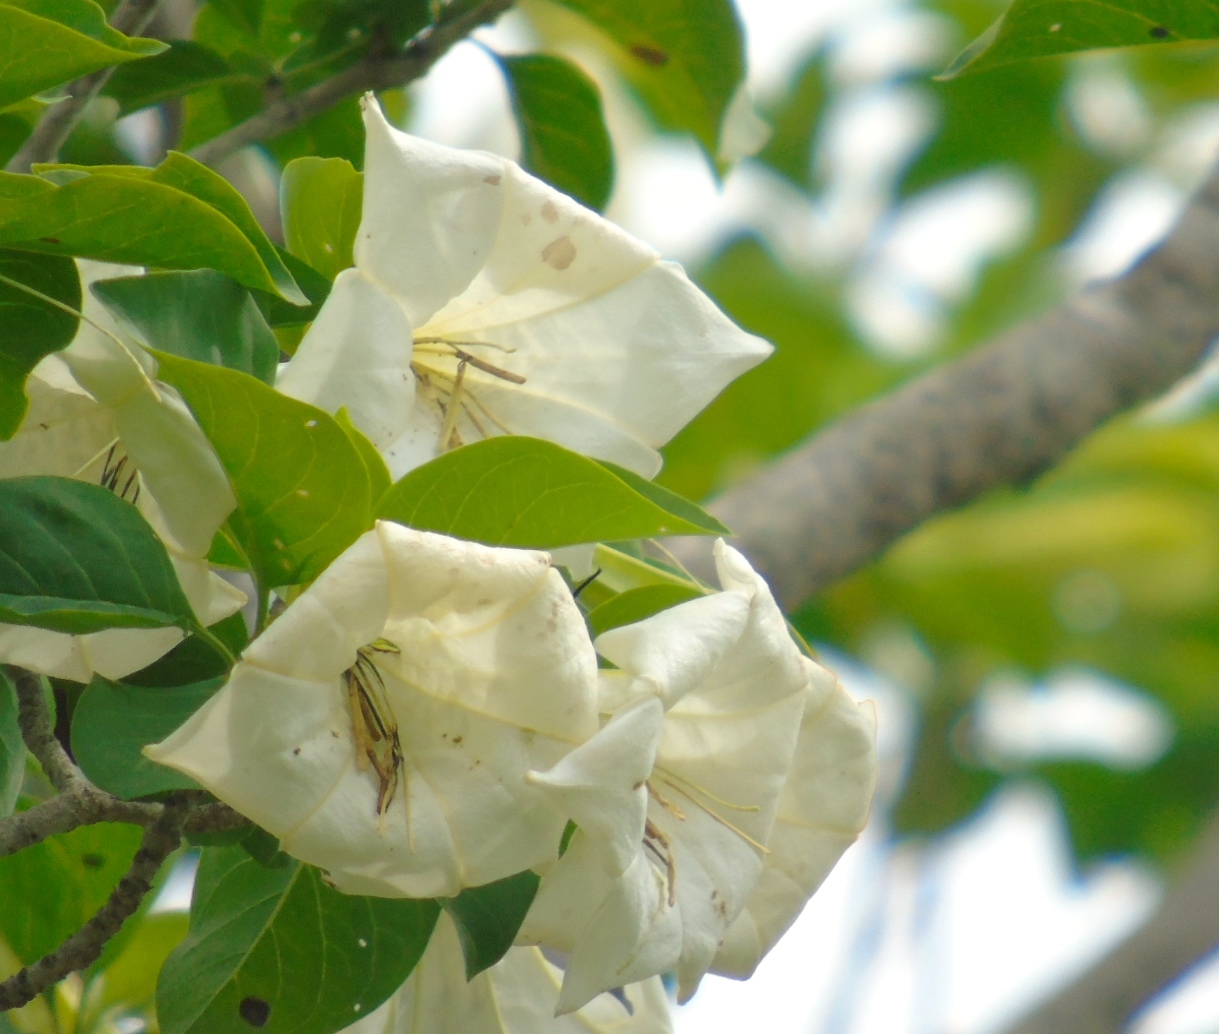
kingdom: Plantae
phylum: Tracheophyta
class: Magnoliopsida
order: Gentianales
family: Rubiaceae
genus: Hintonia
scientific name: Hintonia latiflora
